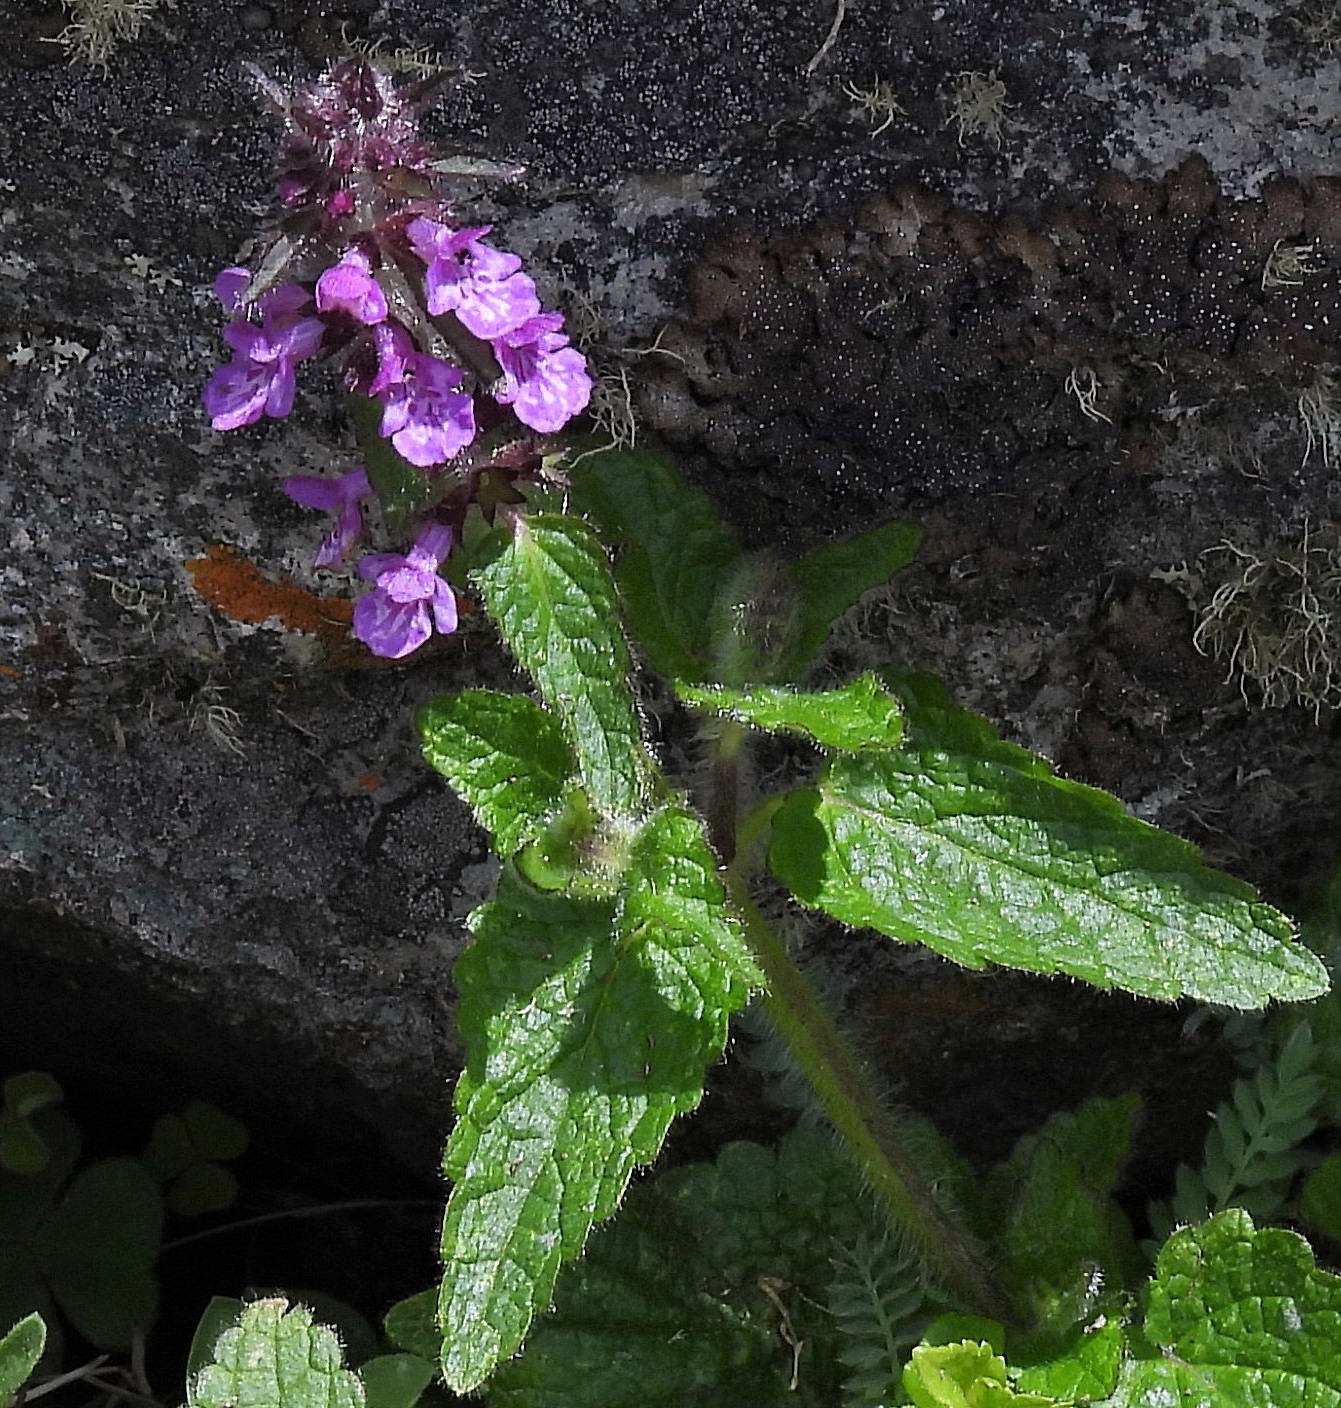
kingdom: Plantae
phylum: Tracheophyta
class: Magnoliopsida
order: Lamiales
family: Lamiaceae
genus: Stachys
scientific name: Stachys gilliesii
